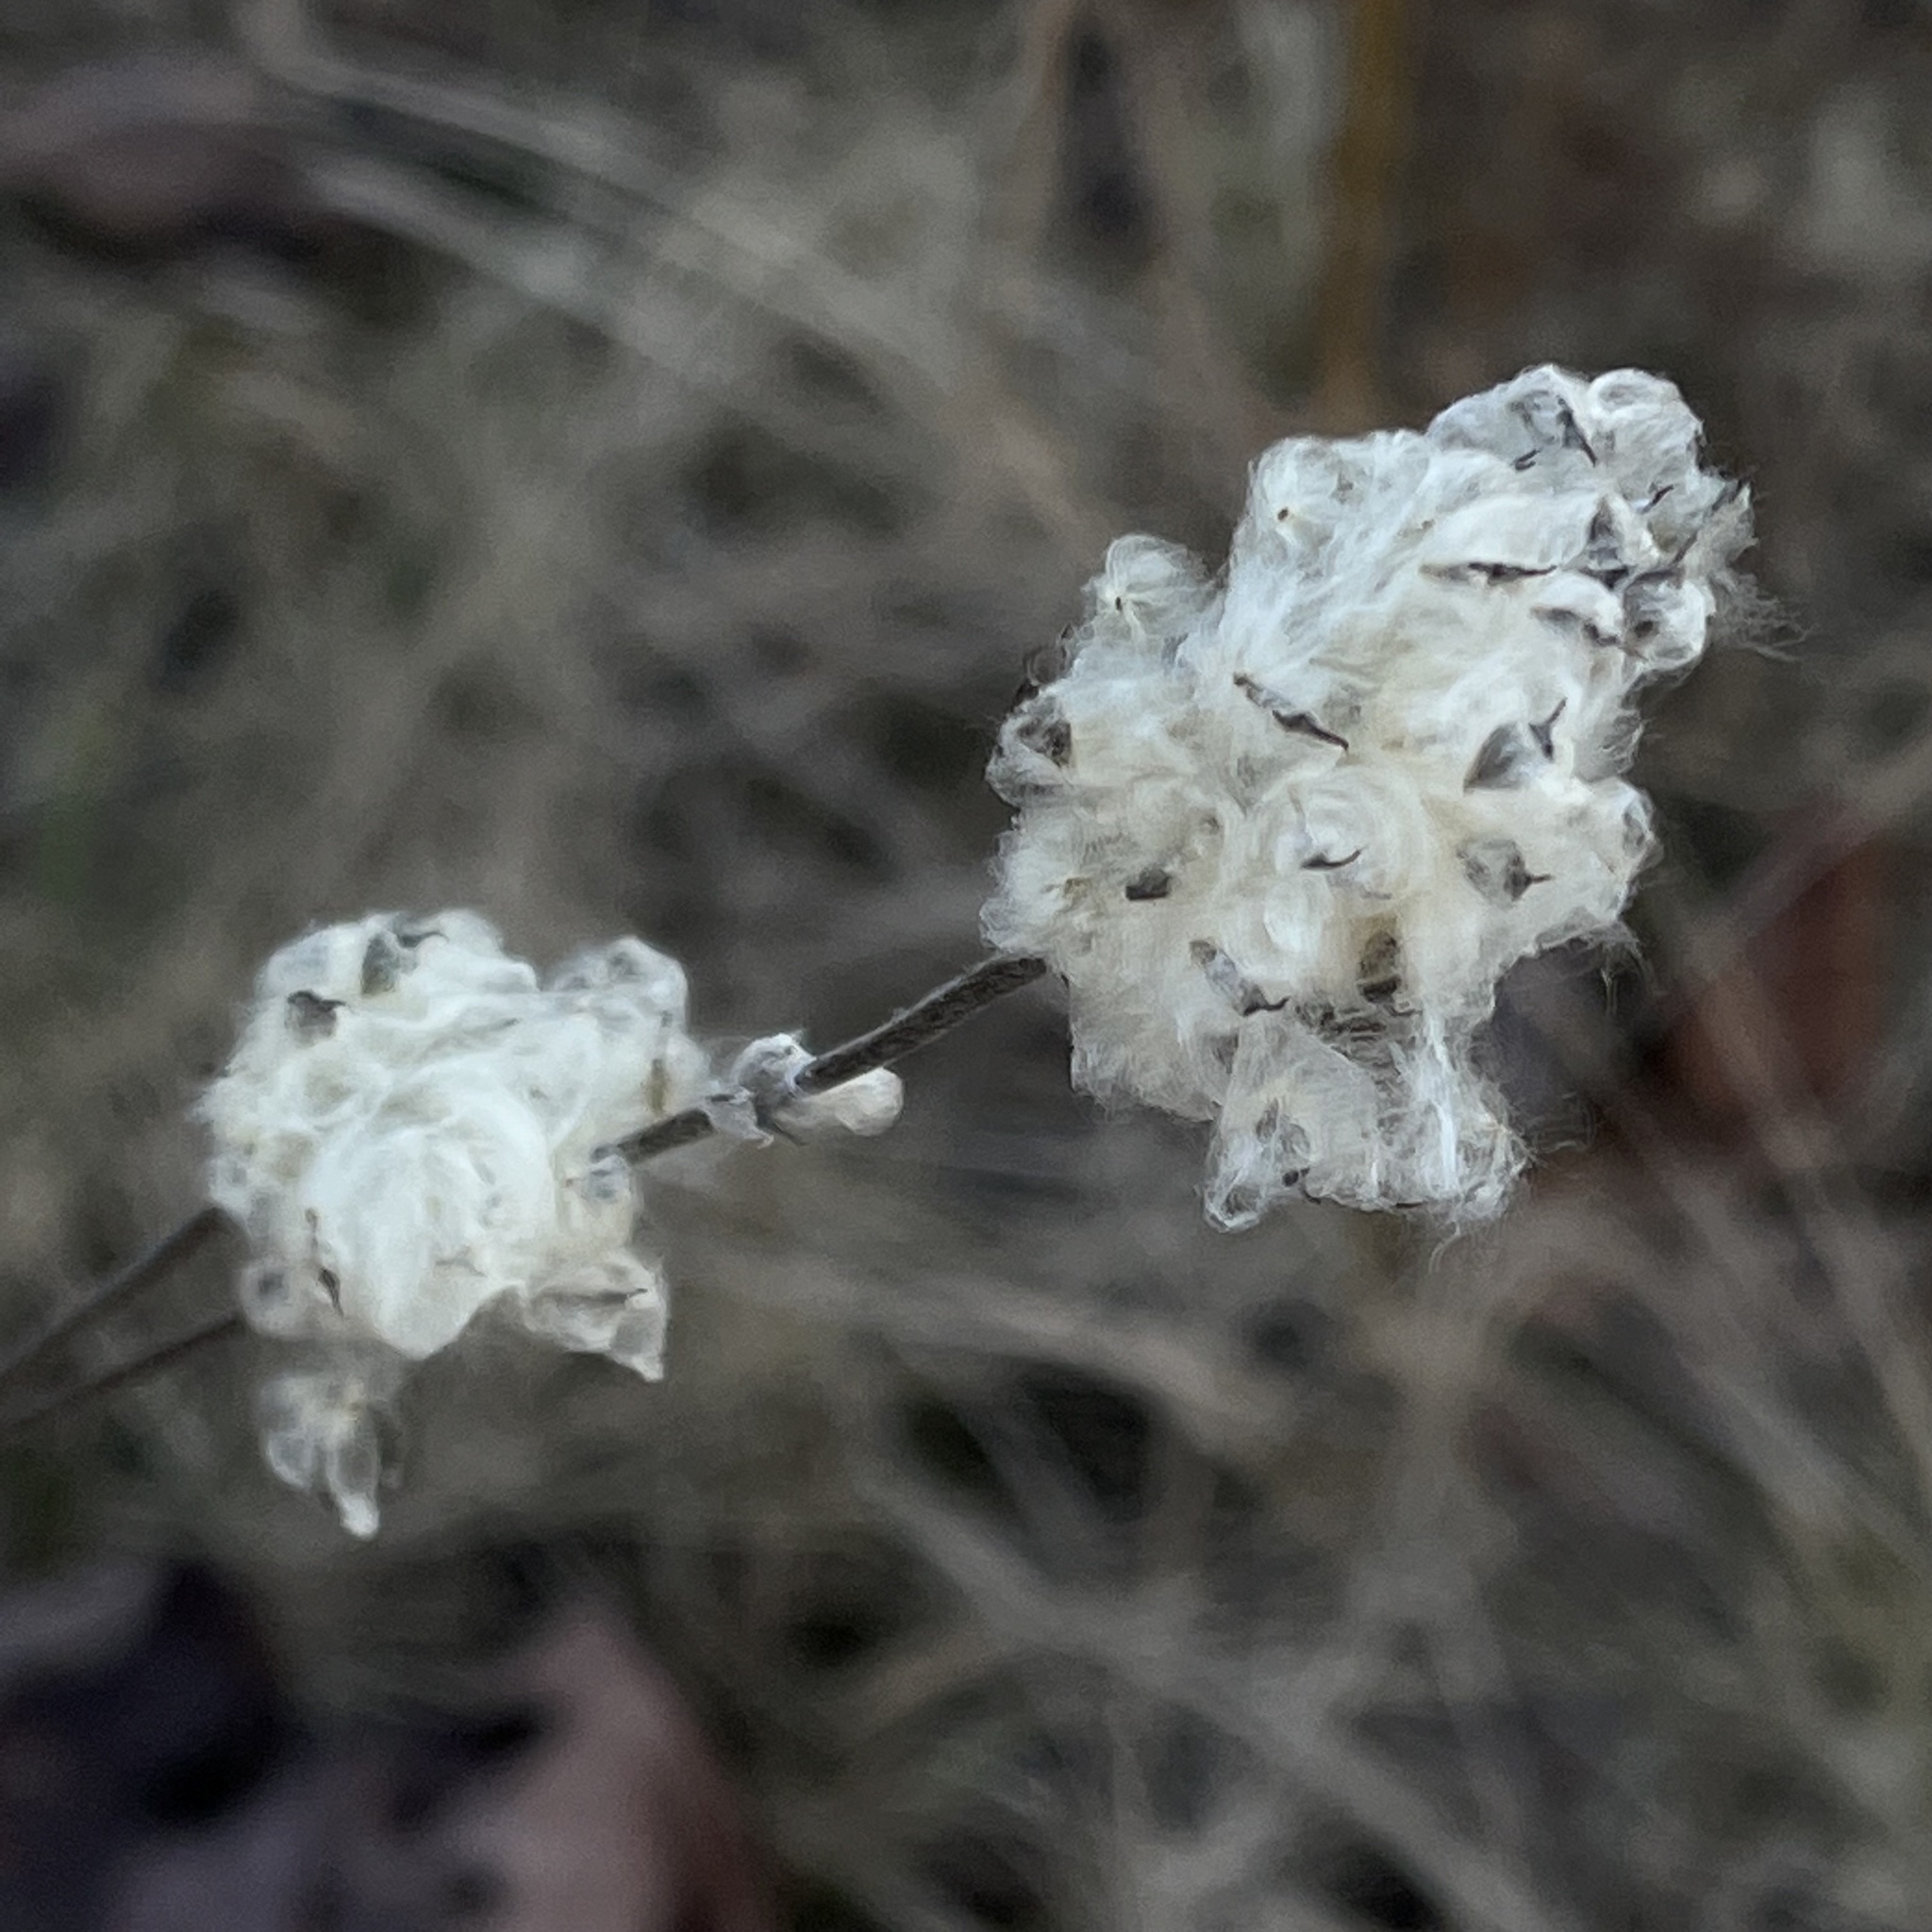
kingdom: Plantae
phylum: Tracheophyta
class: Magnoliopsida
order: Ranunculales
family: Ranunculaceae
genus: Anemone
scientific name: Anemone virginiana
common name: Tall anemone
